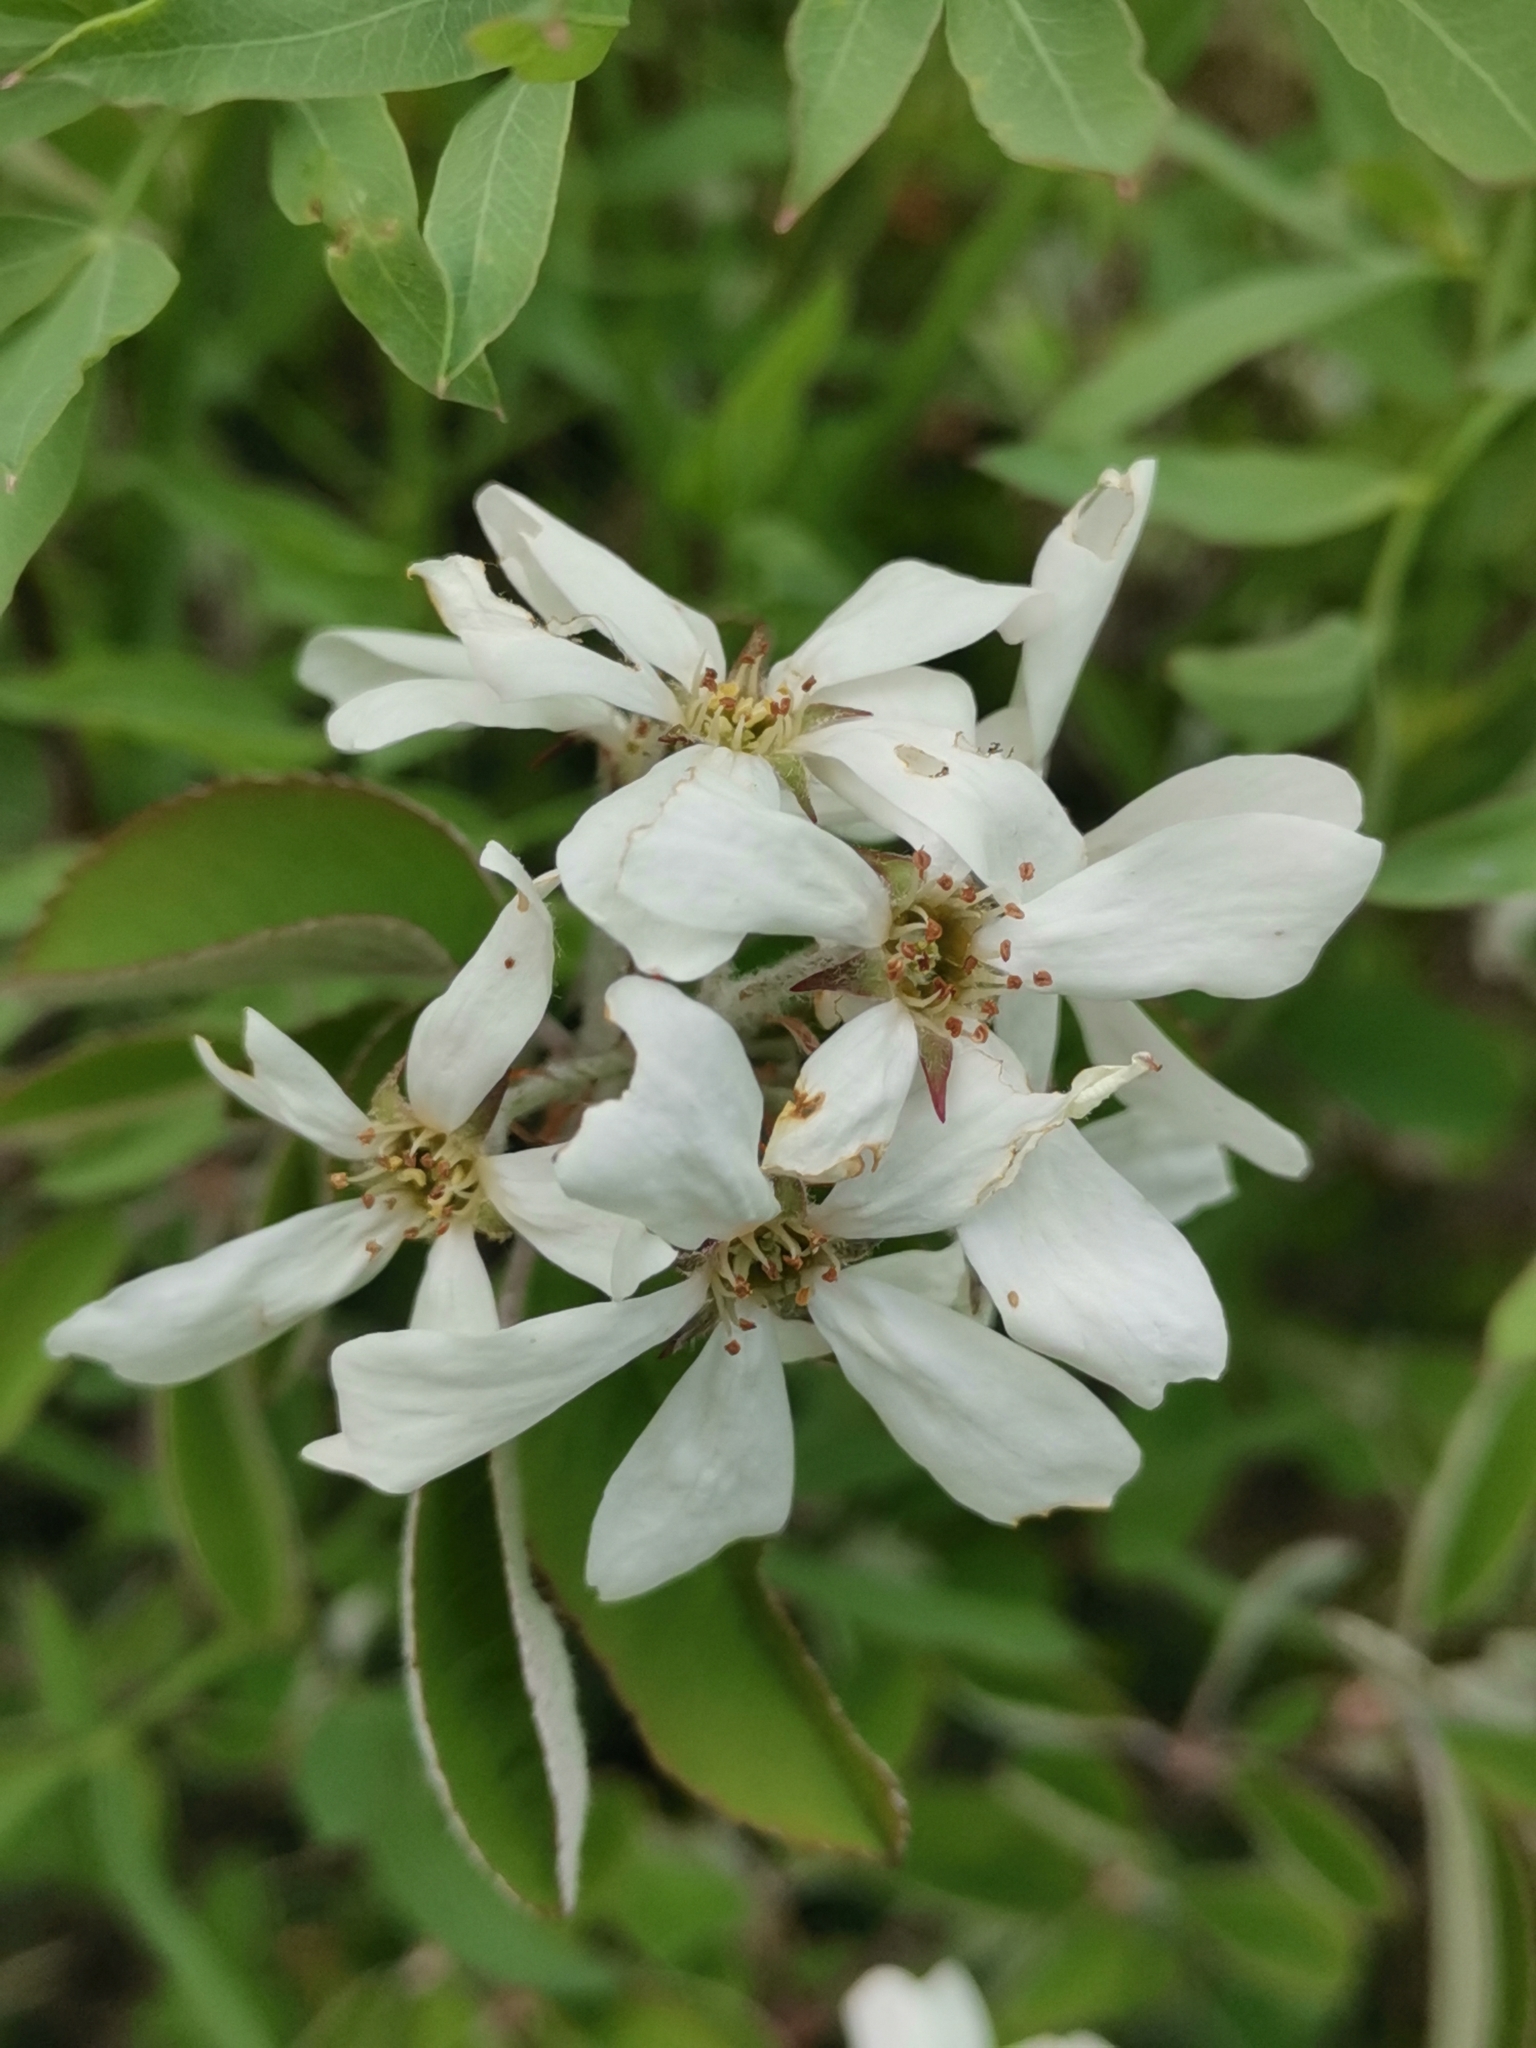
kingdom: Plantae
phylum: Tracheophyta
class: Magnoliopsida
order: Rosales
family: Rosaceae
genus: Amelanchier
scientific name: Amelanchier ovalis
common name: Serviceberry
